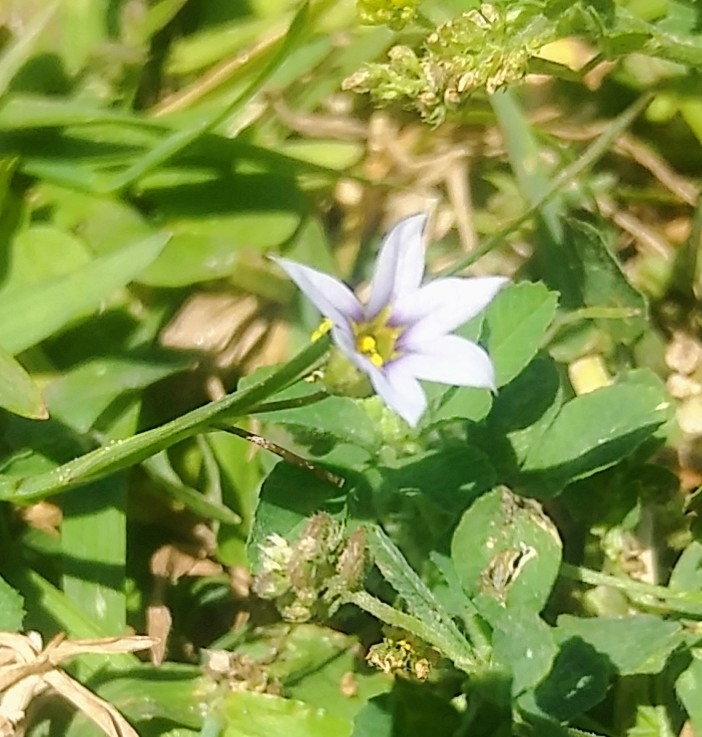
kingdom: Plantae
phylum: Tracheophyta
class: Liliopsida
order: Asparagales
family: Iridaceae
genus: Sisyrinchium
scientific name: Sisyrinchium micranthum
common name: Bermuda pigroot
